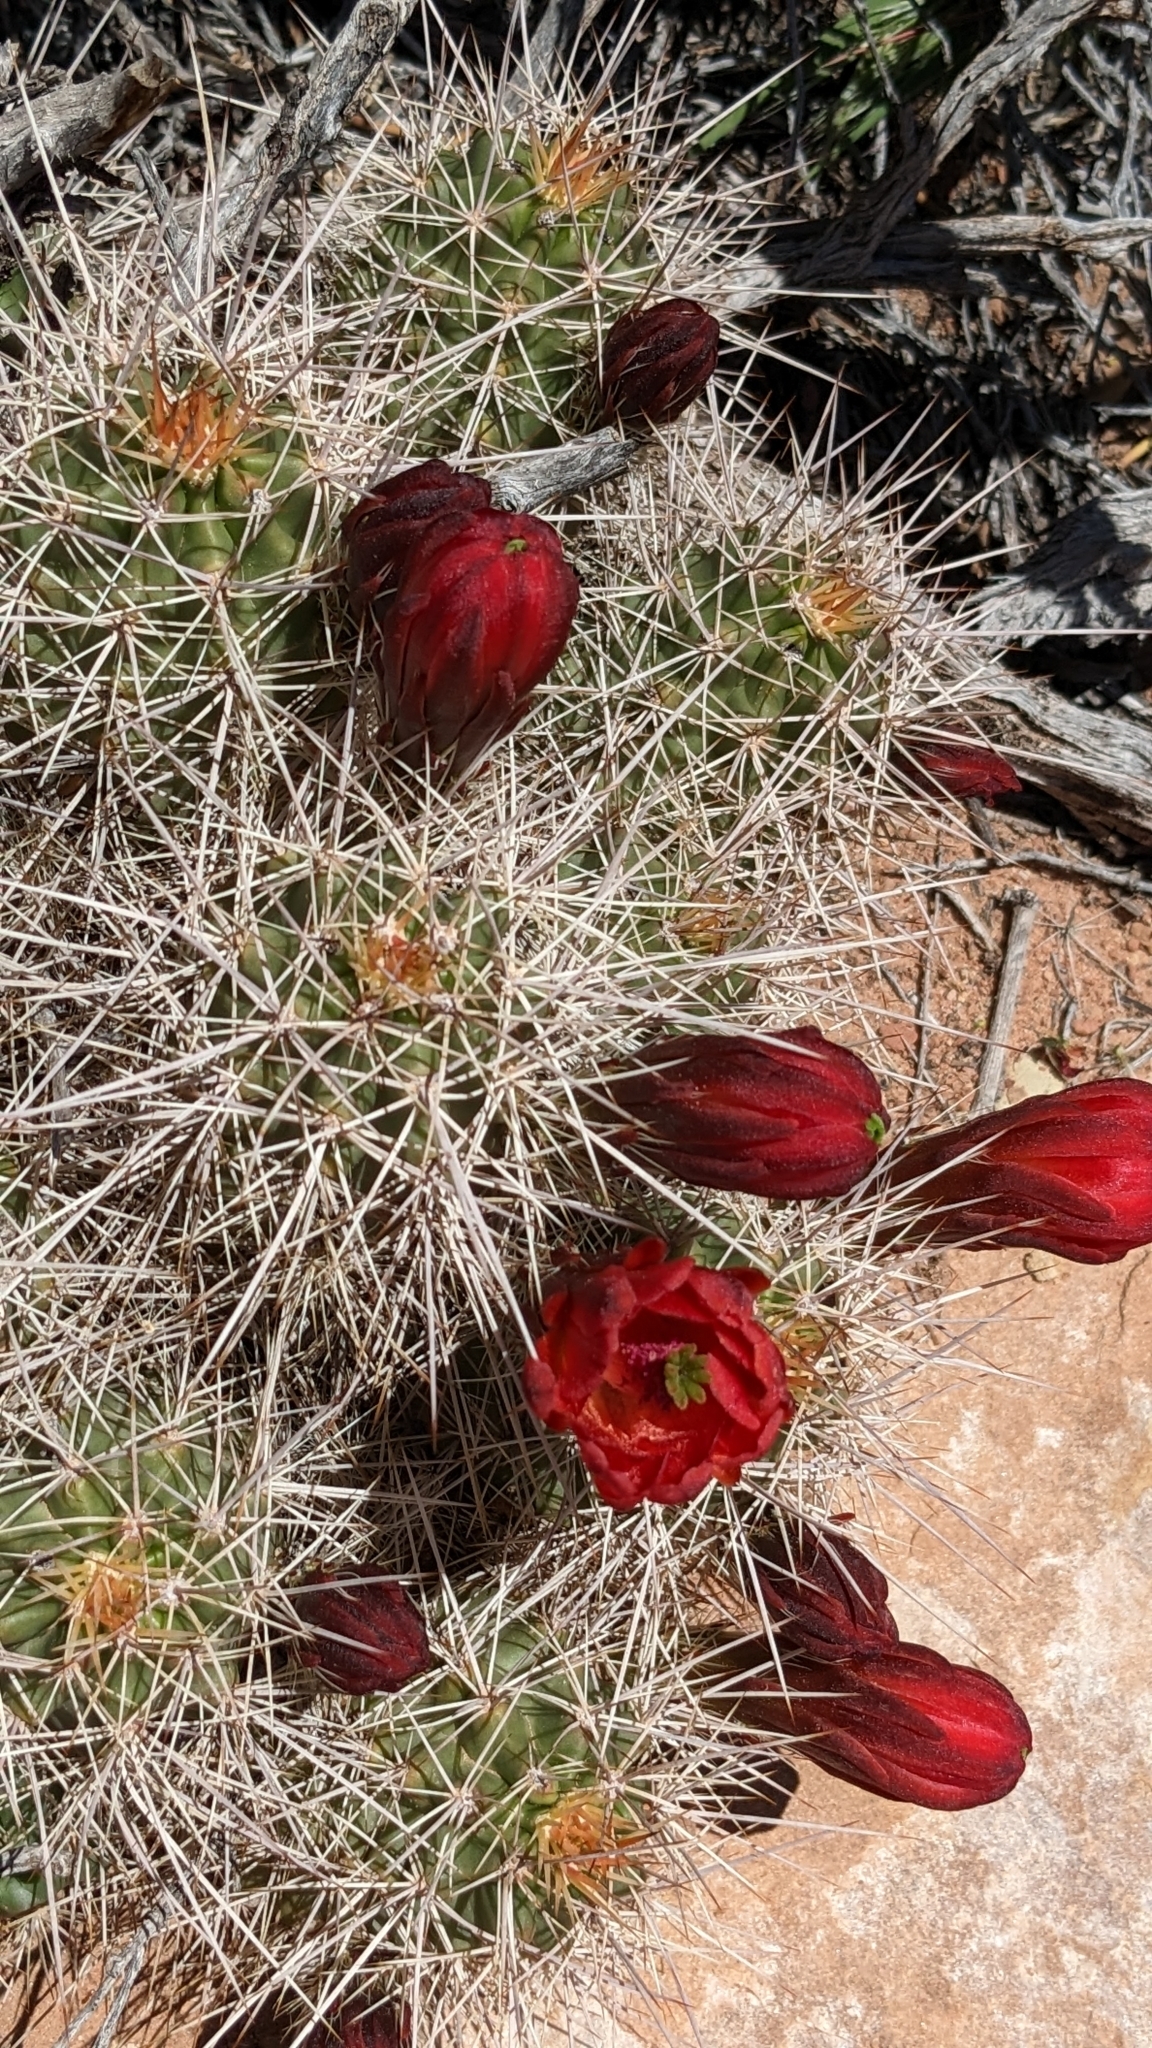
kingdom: Plantae
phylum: Tracheophyta
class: Magnoliopsida
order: Caryophyllales
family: Cactaceae
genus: Echinocereus
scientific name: Echinocereus triglochidiatus
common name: Claretcup hedgehog
